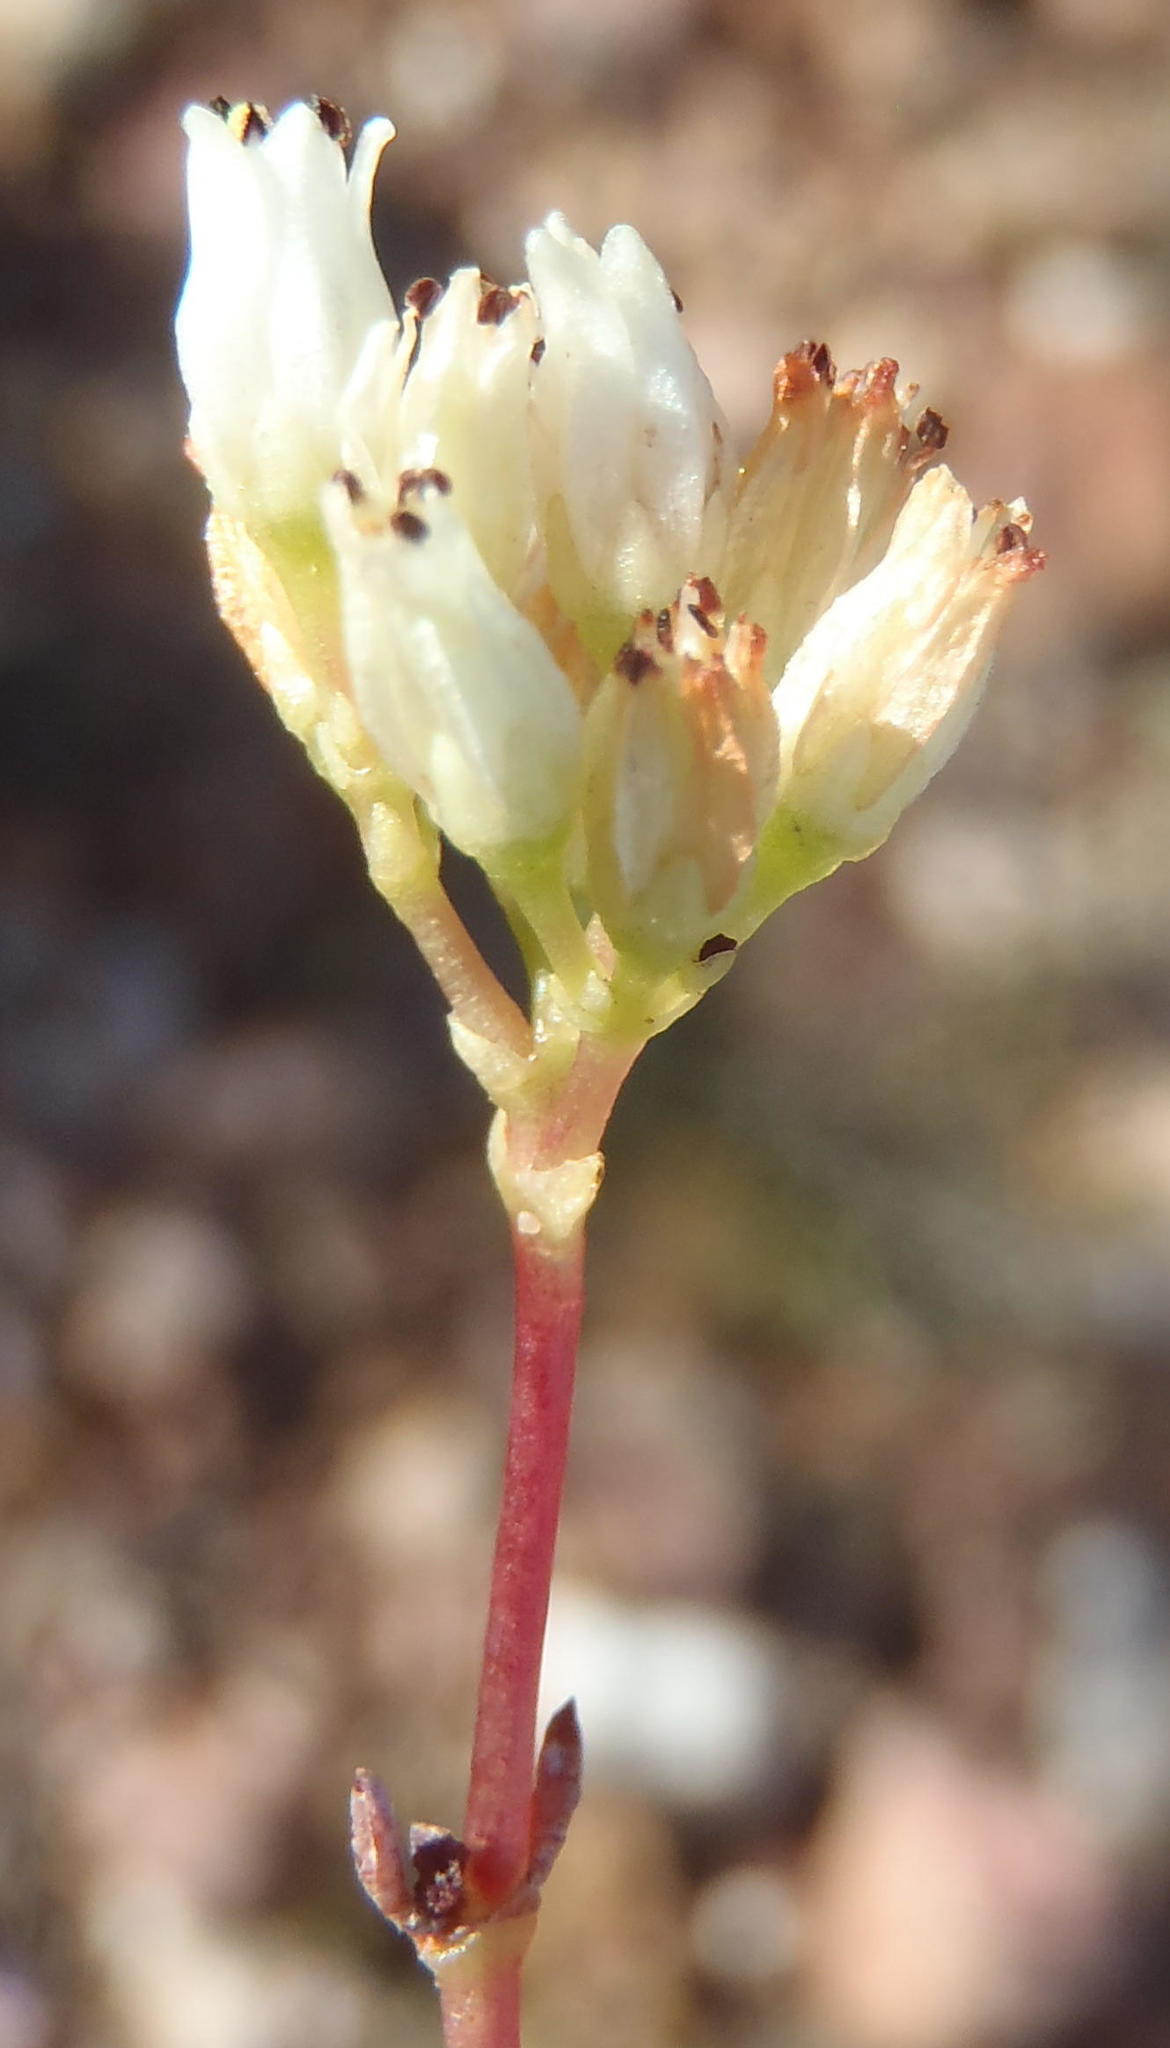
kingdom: Plantae
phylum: Tracheophyta
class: Magnoliopsida
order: Saxifragales
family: Crassulaceae
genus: Crassula
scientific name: Crassula biplanata
